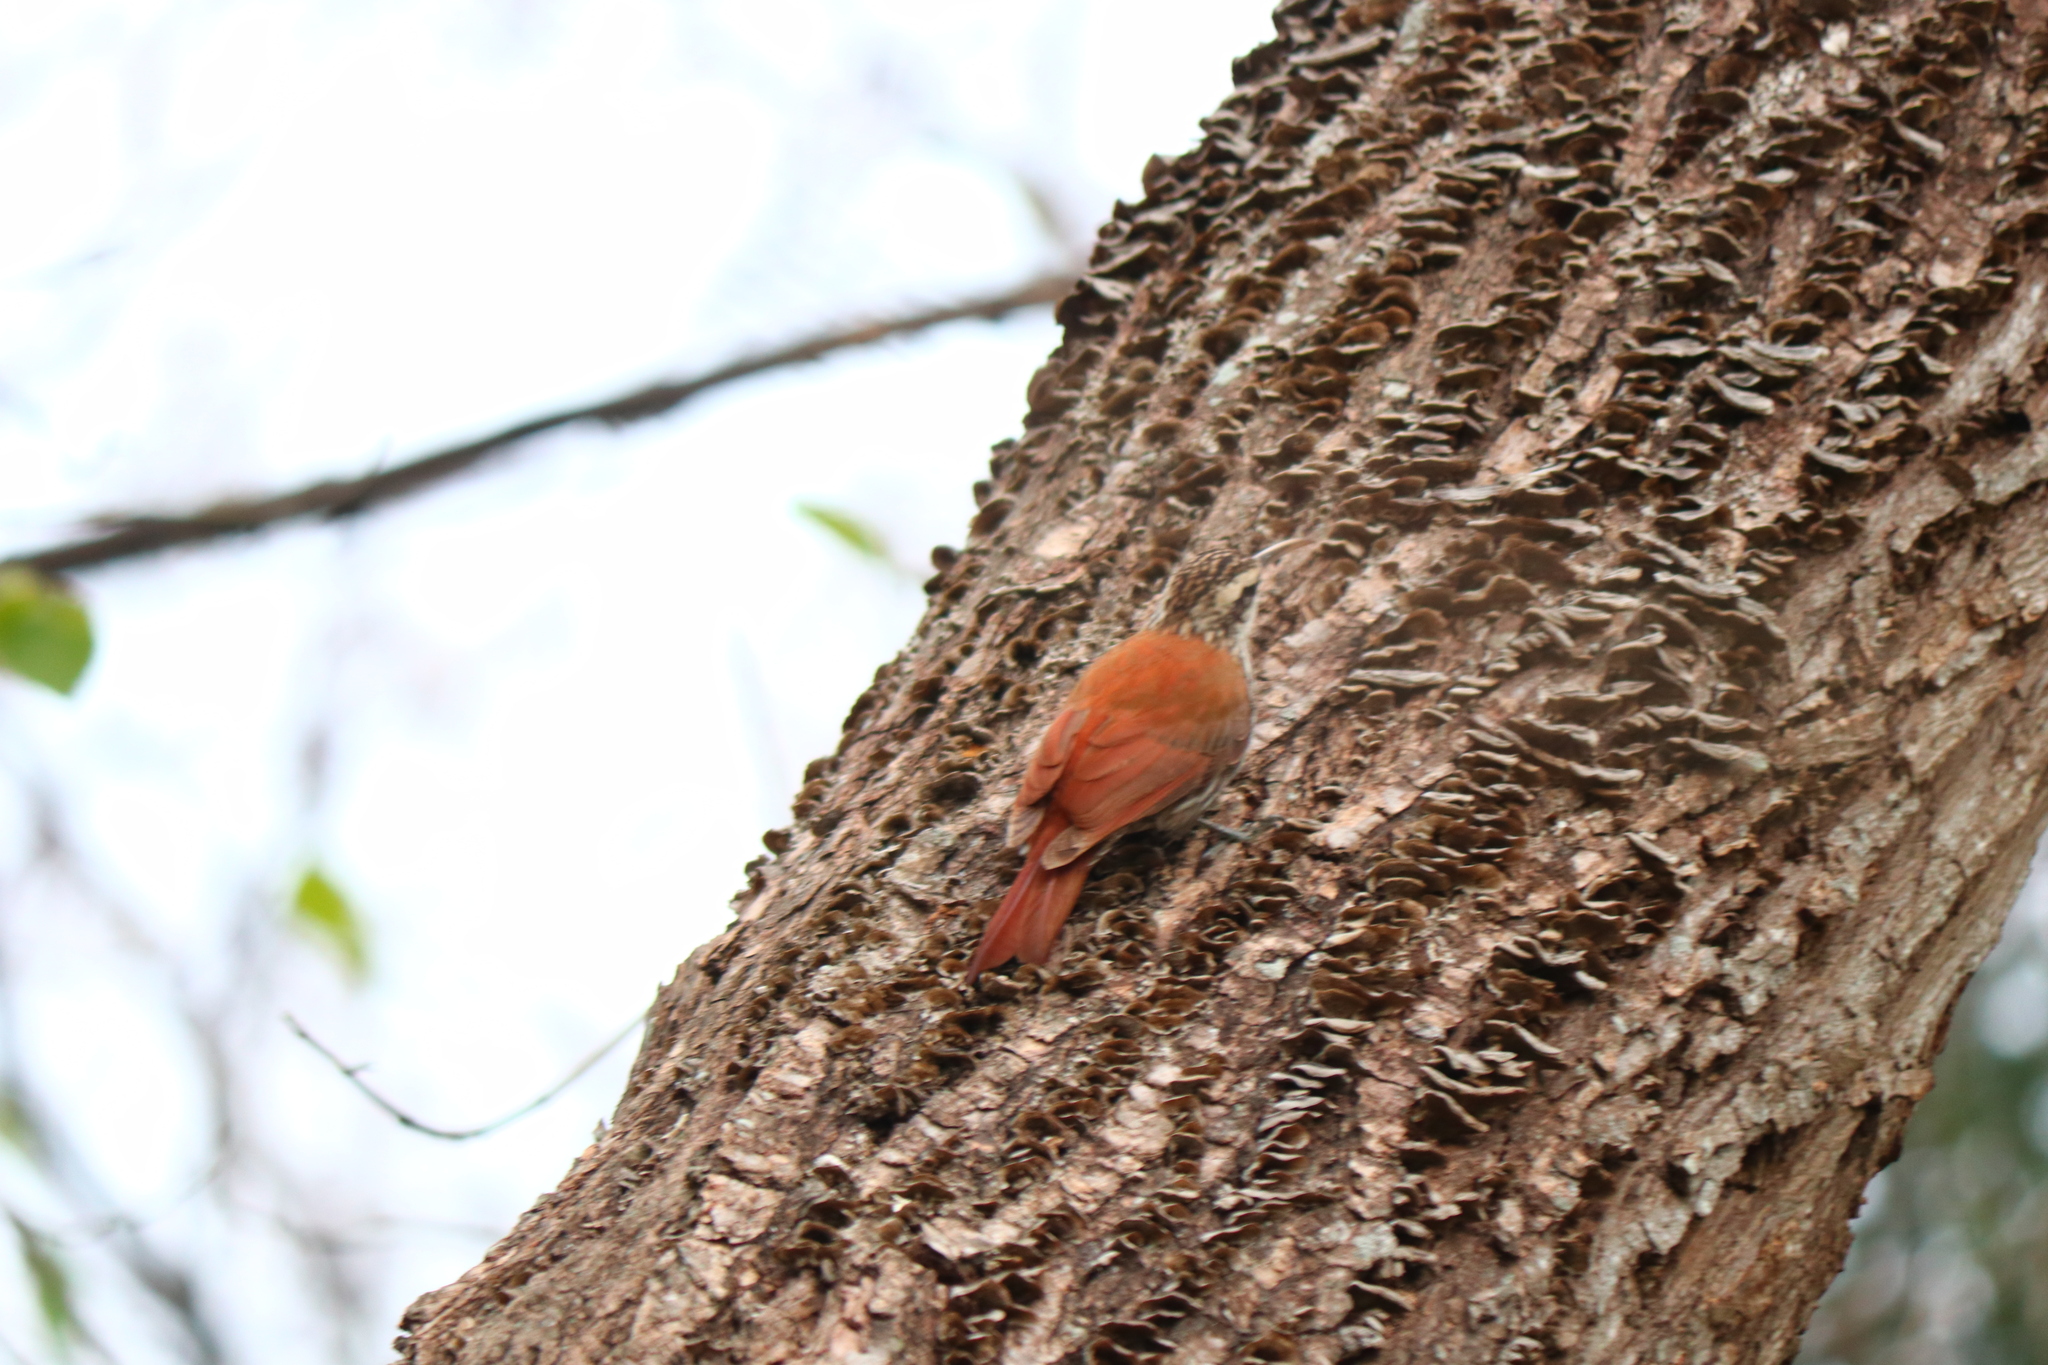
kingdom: Animalia
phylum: Chordata
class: Aves
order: Passeriformes
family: Furnariidae
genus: Lepidocolaptes
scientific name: Lepidocolaptes angustirostris
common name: Narrow-billed woodcreeper
